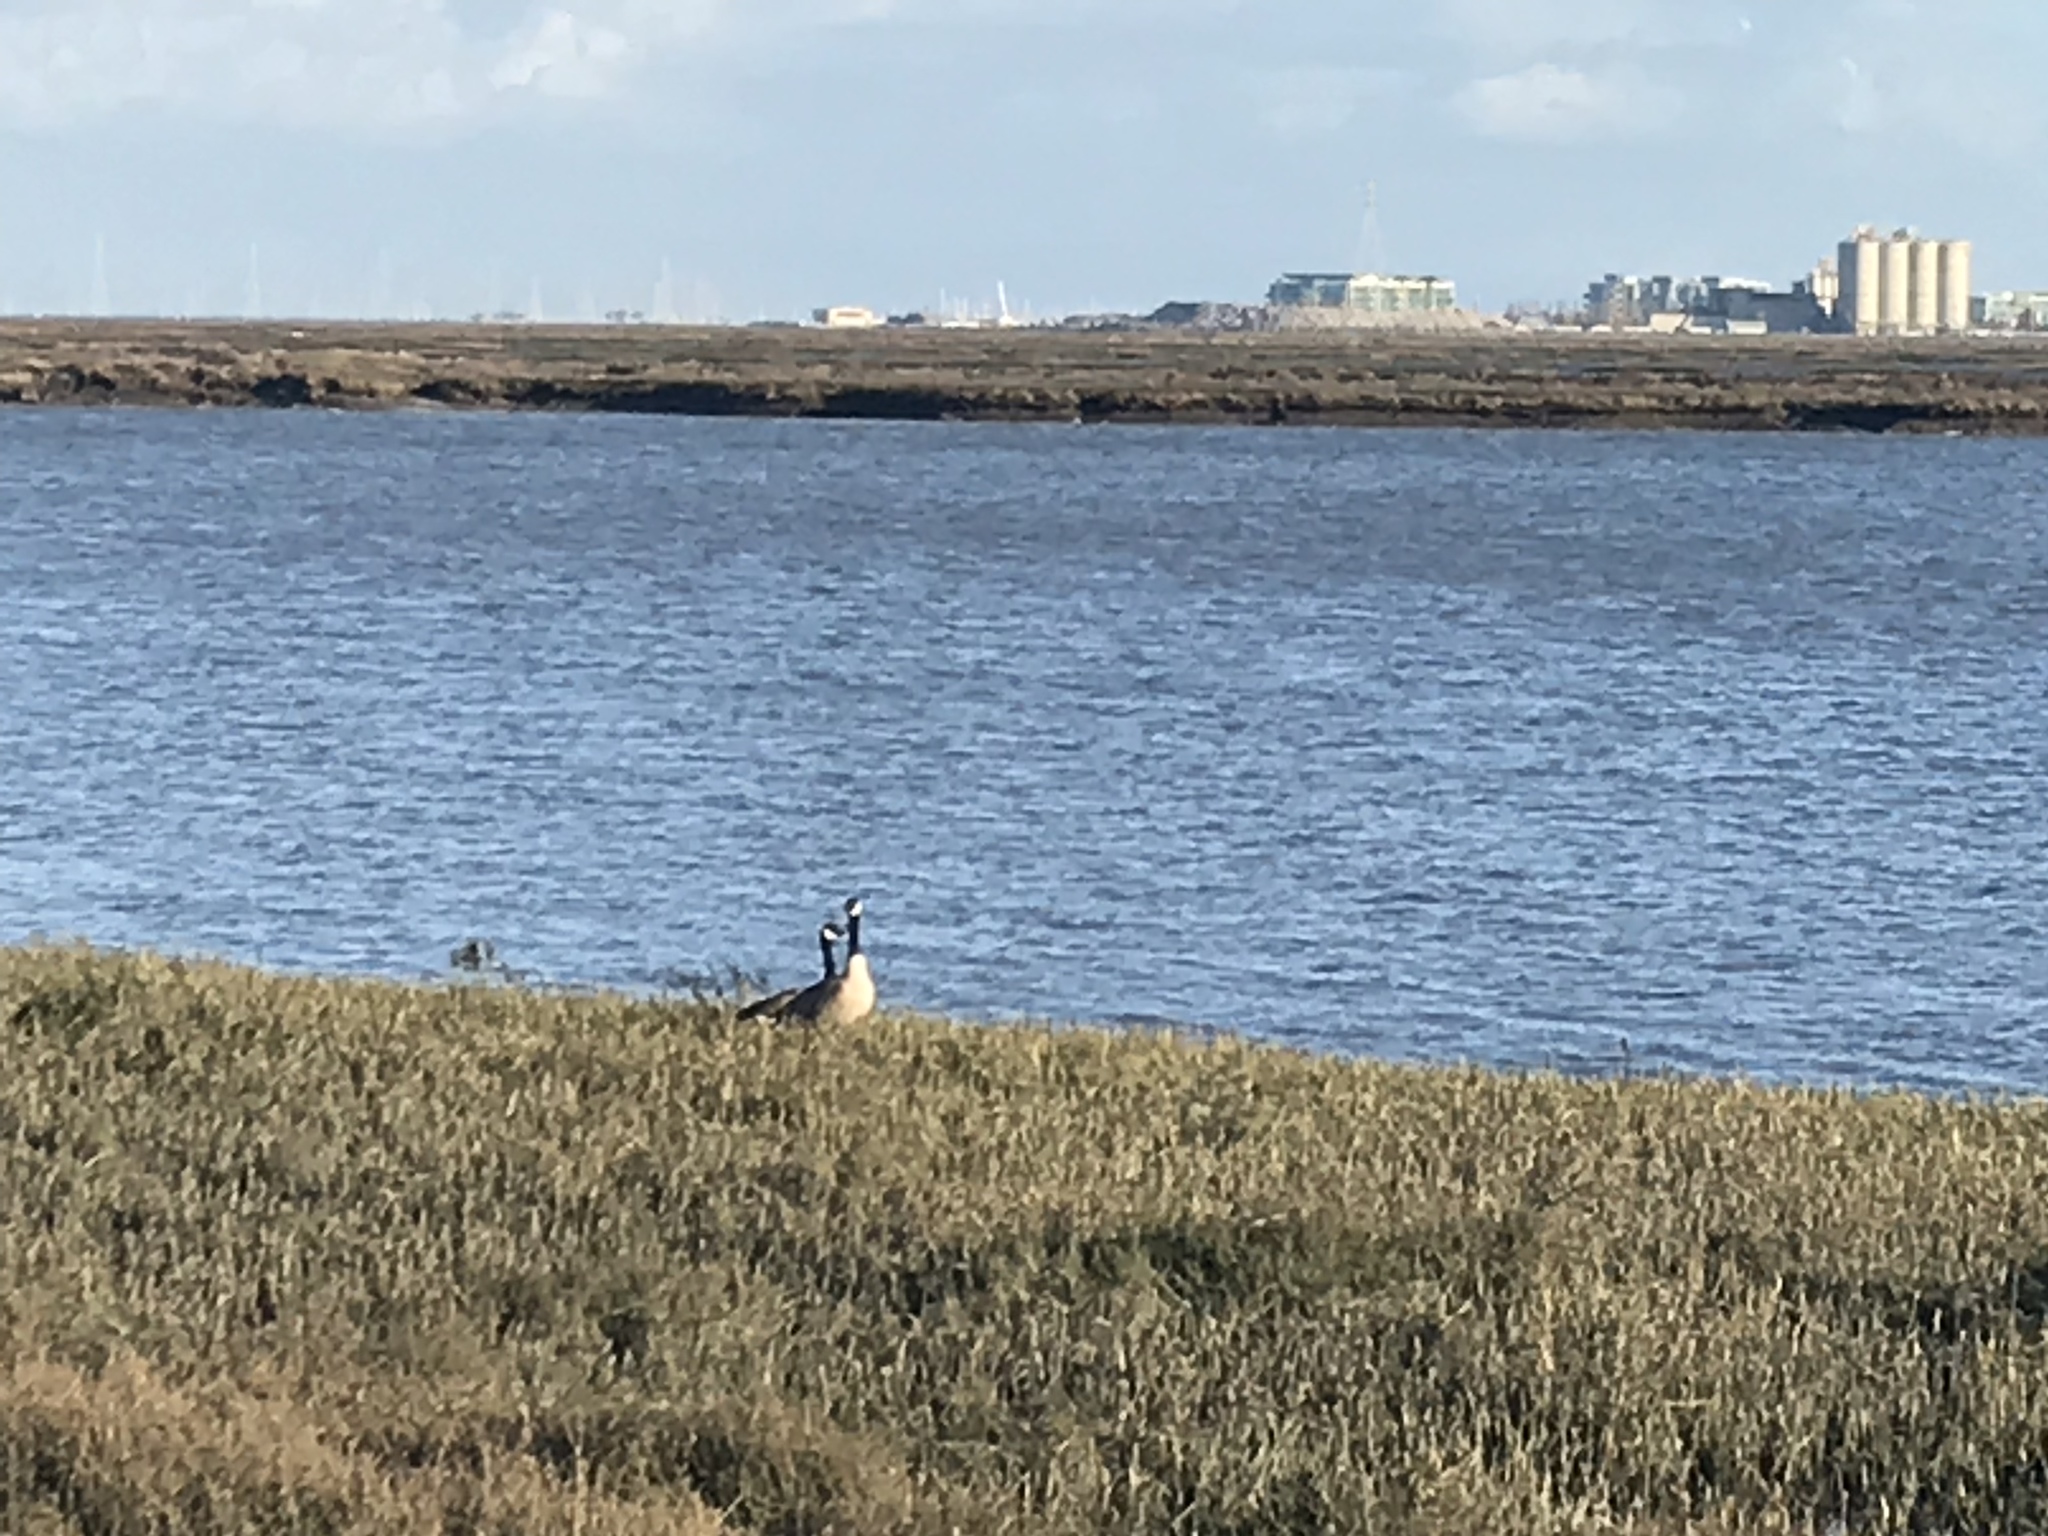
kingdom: Animalia
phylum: Chordata
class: Aves
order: Anseriformes
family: Anatidae
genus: Branta
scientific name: Branta canadensis
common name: Canada goose
